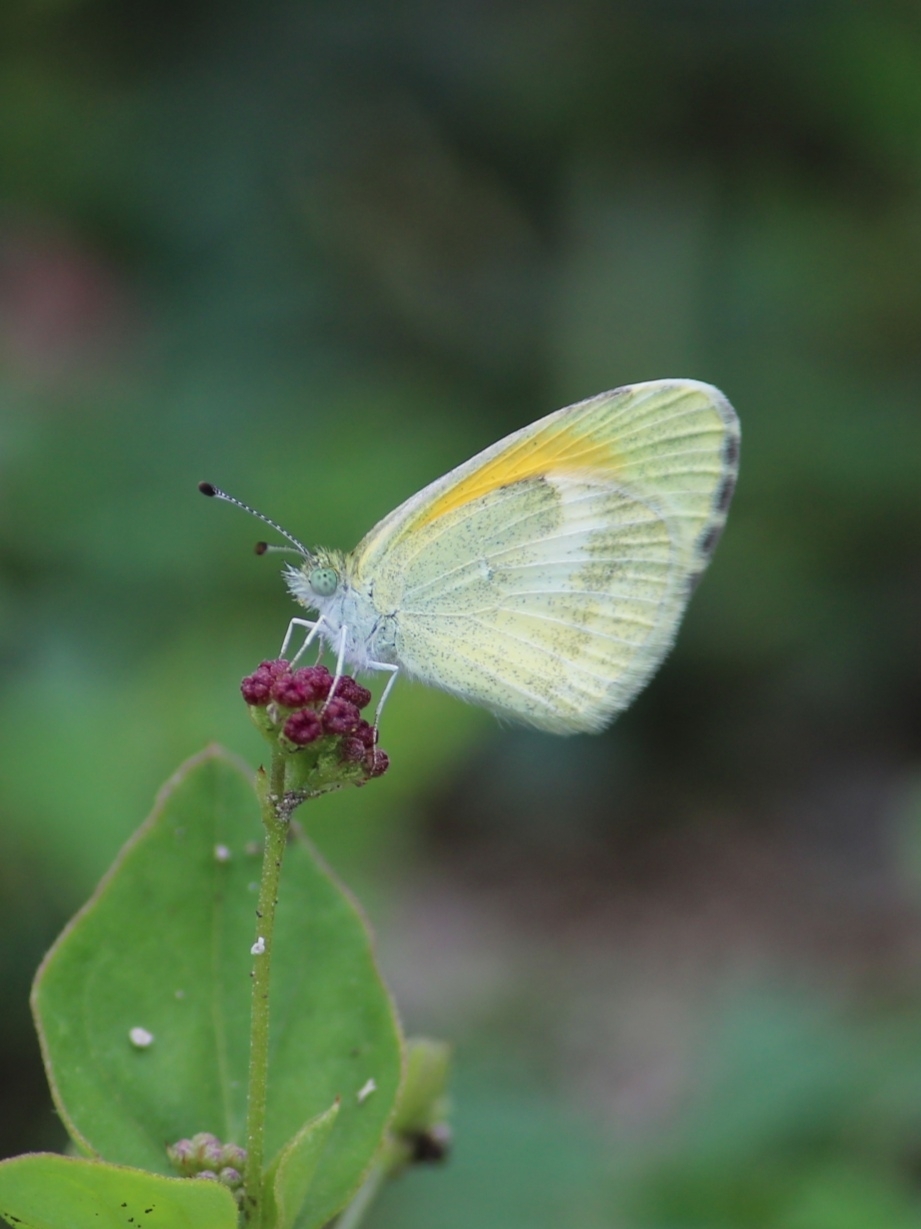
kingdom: Animalia
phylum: Arthropoda
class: Insecta
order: Lepidoptera
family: Pieridae
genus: Nathalis
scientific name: Nathalis iole
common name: Dainty sulphur
